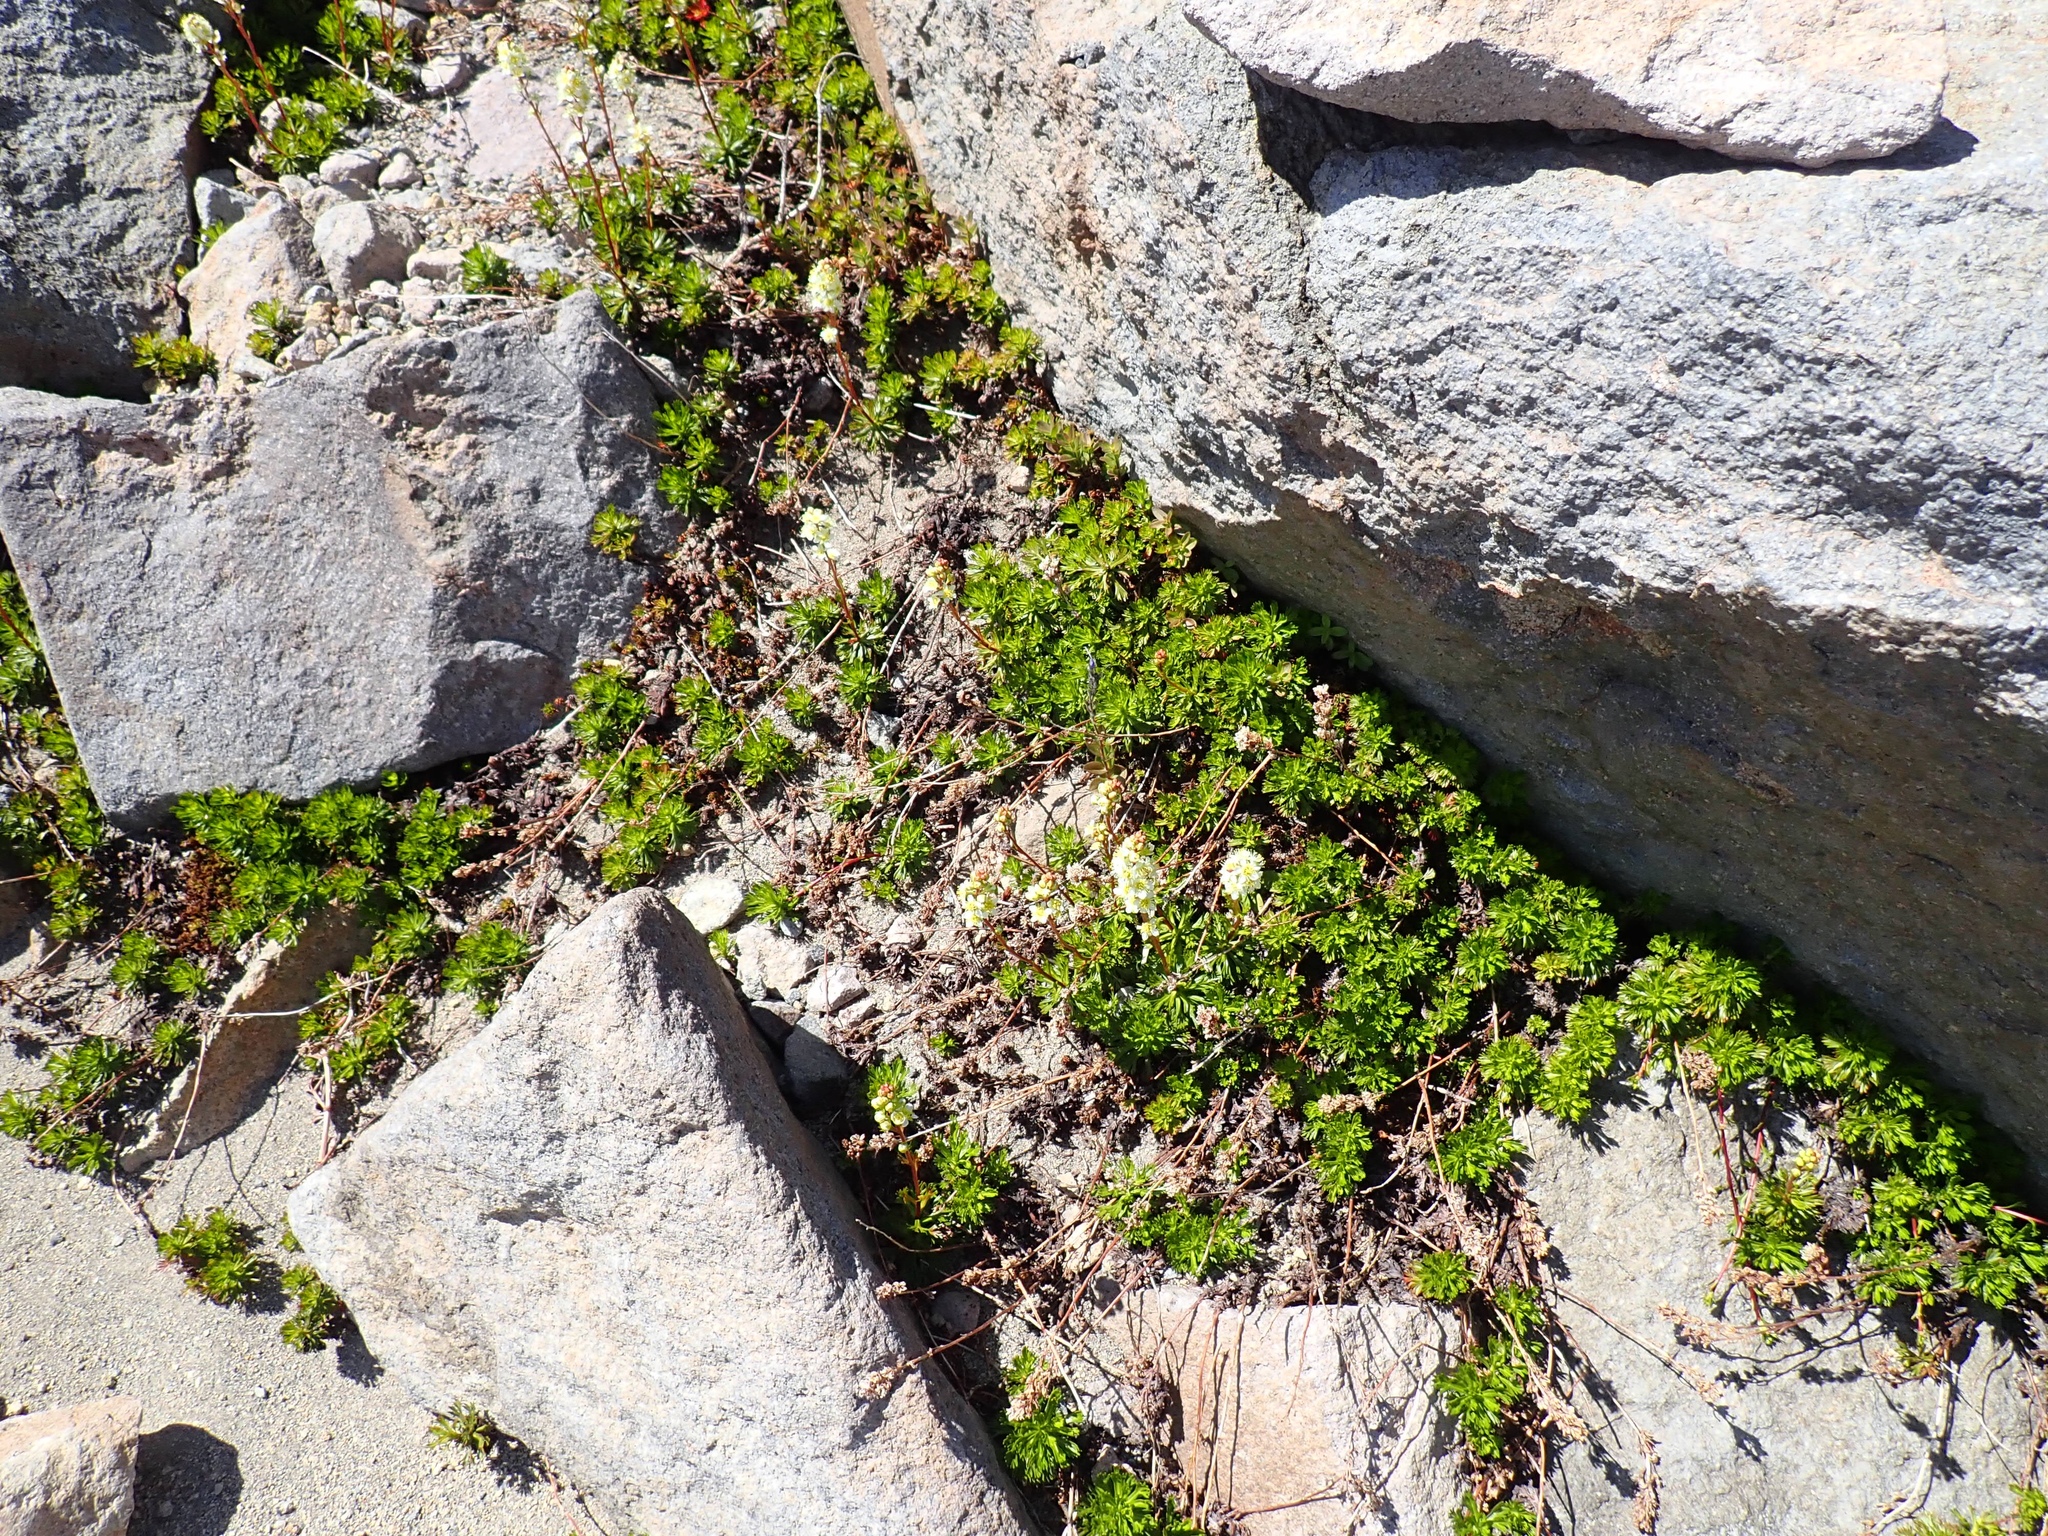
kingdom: Plantae
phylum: Tracheophyta
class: Magnoliopsida
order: Rosales
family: Rosaceae
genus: Luetkea
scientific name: Luetkea pectinata
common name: Partridgefoot
